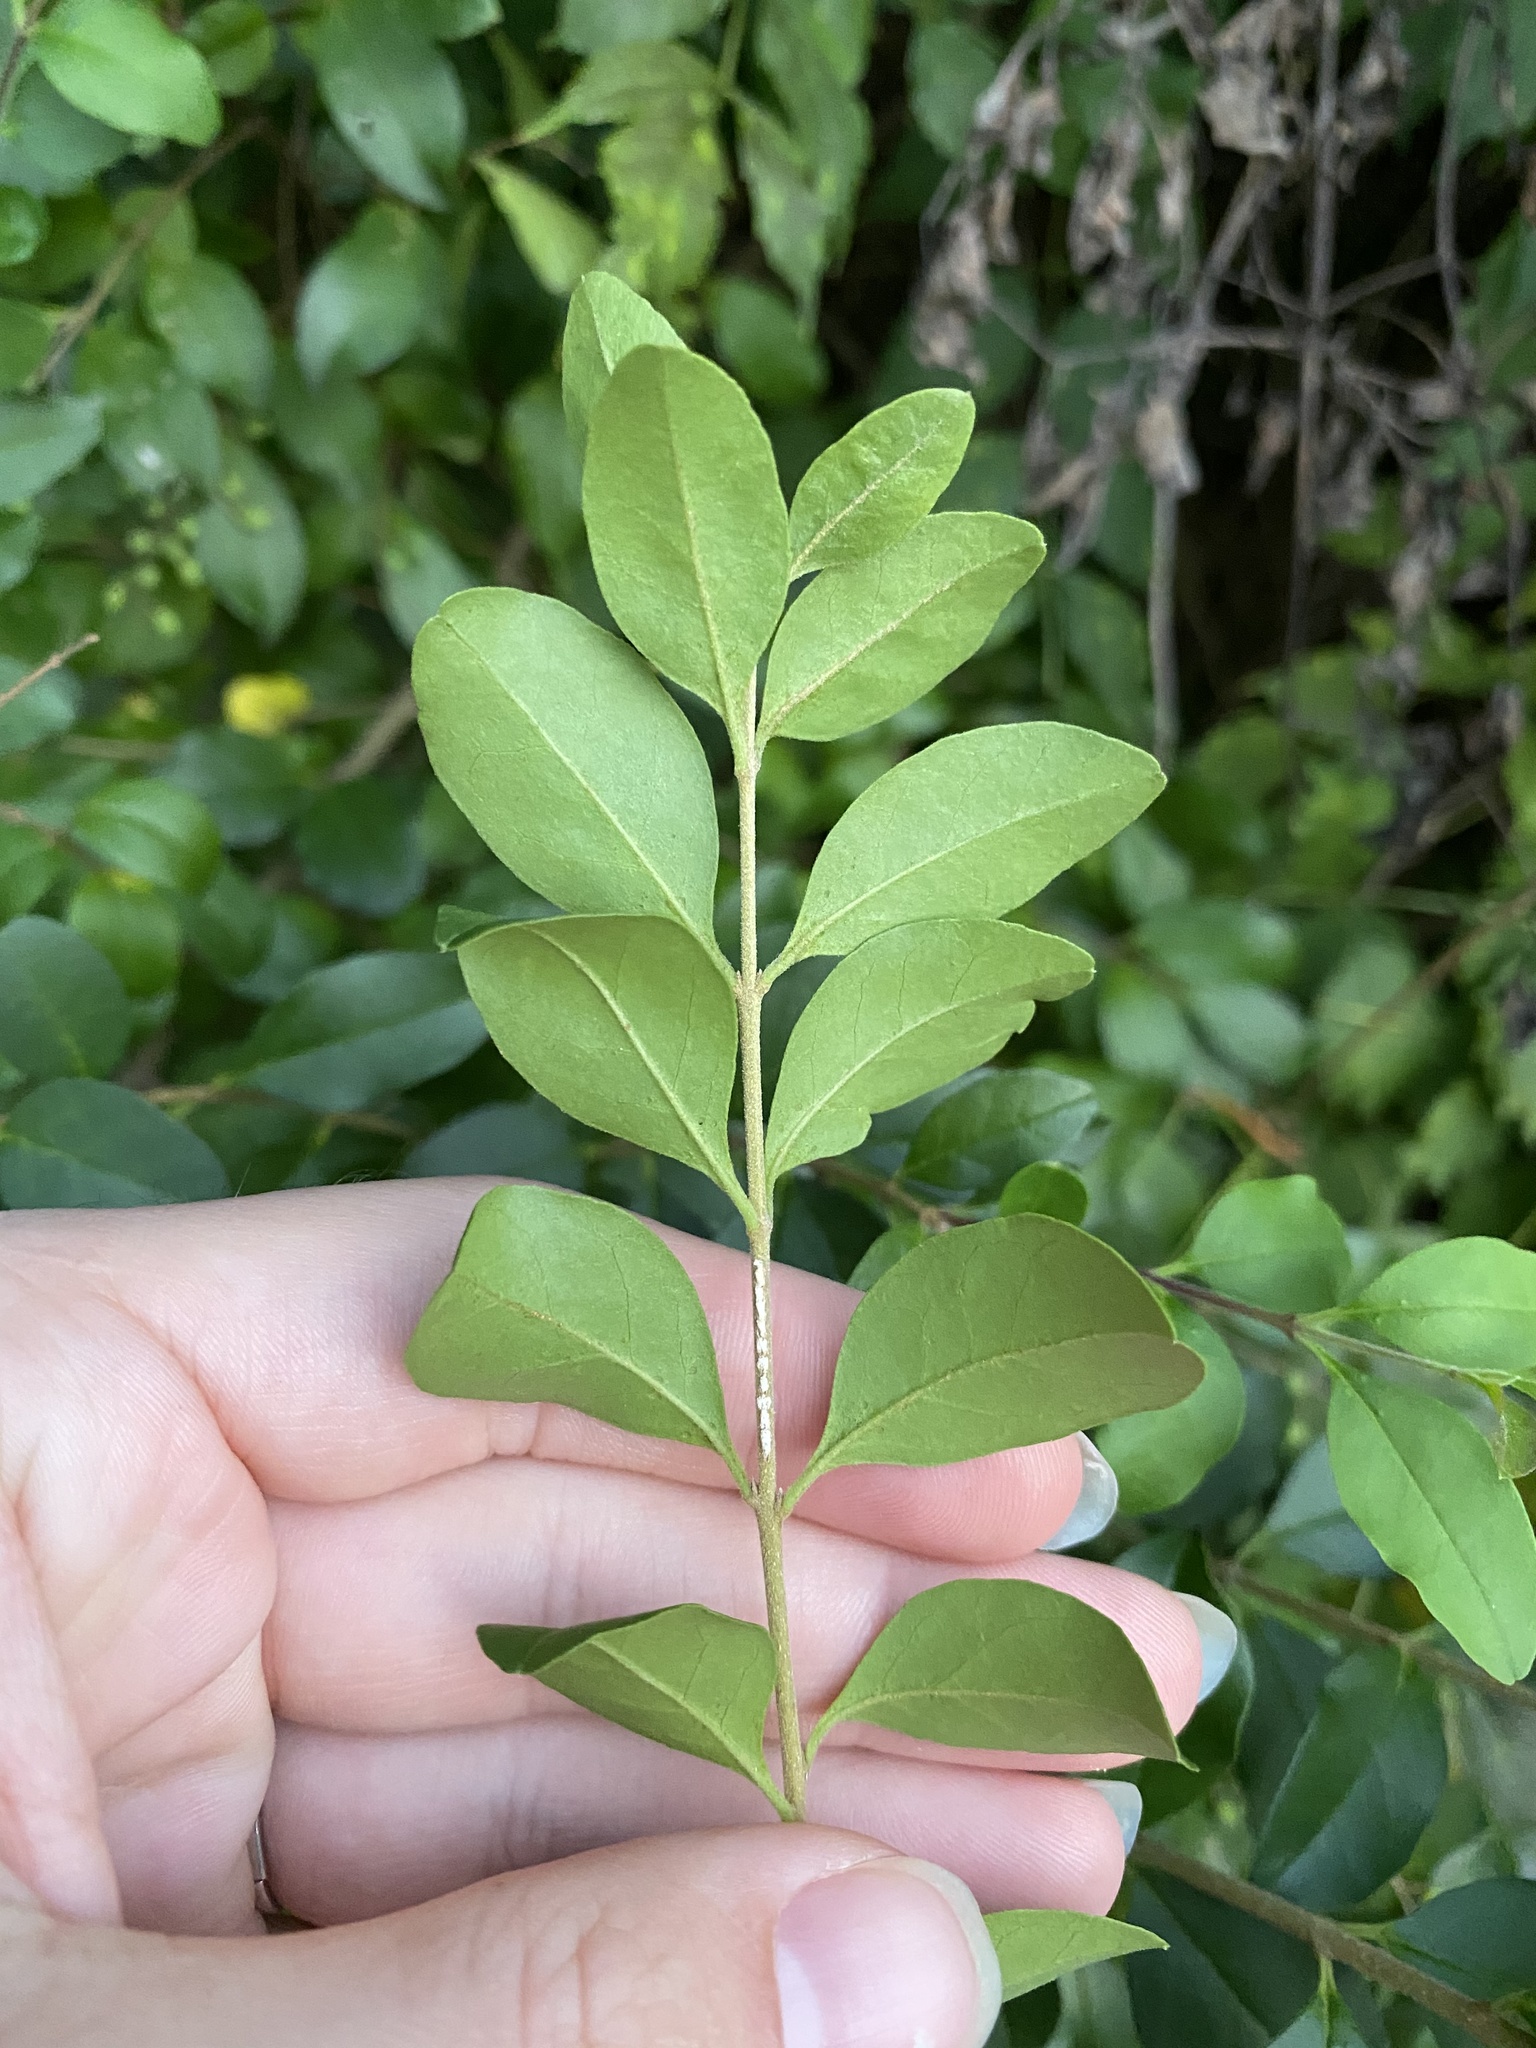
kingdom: Plantae
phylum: Tracheophyta
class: Magnoliopsida
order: Lamiales
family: Oleaceae
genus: Ligustrum
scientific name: Ligustrum sinense
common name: Chinese privet
